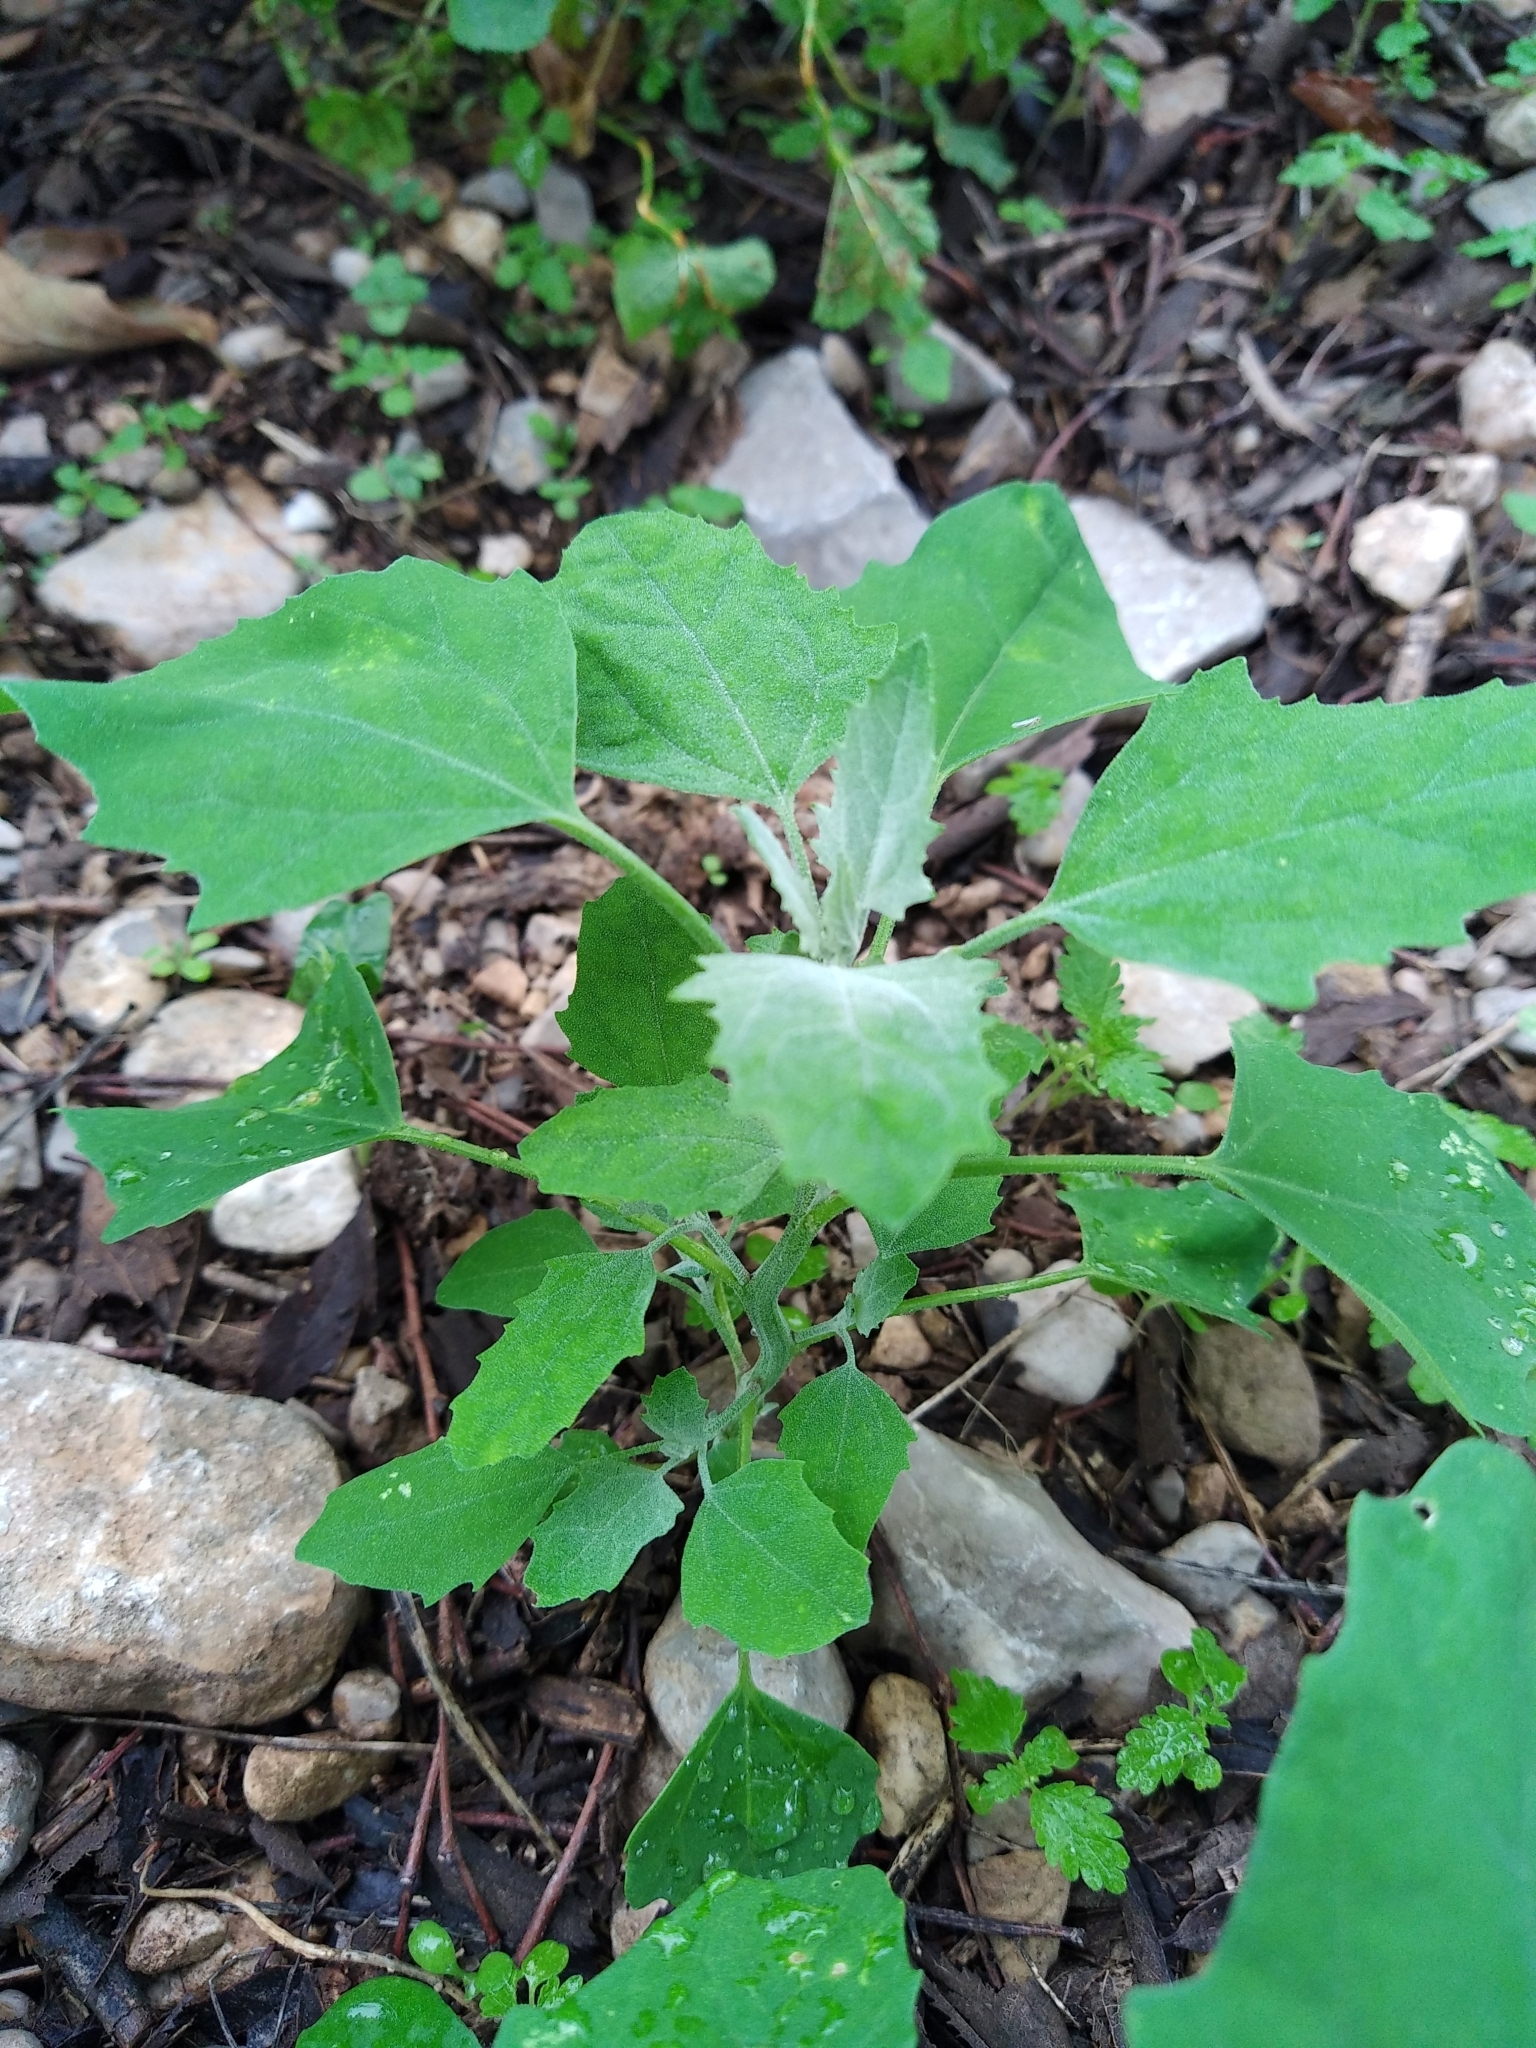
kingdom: Plantae
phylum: Tracheophyta
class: Magnoliopsida
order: Caryophyllales
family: Amaranthaceae
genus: Chenopodium
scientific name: Chenopodium album
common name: Fat-hen
